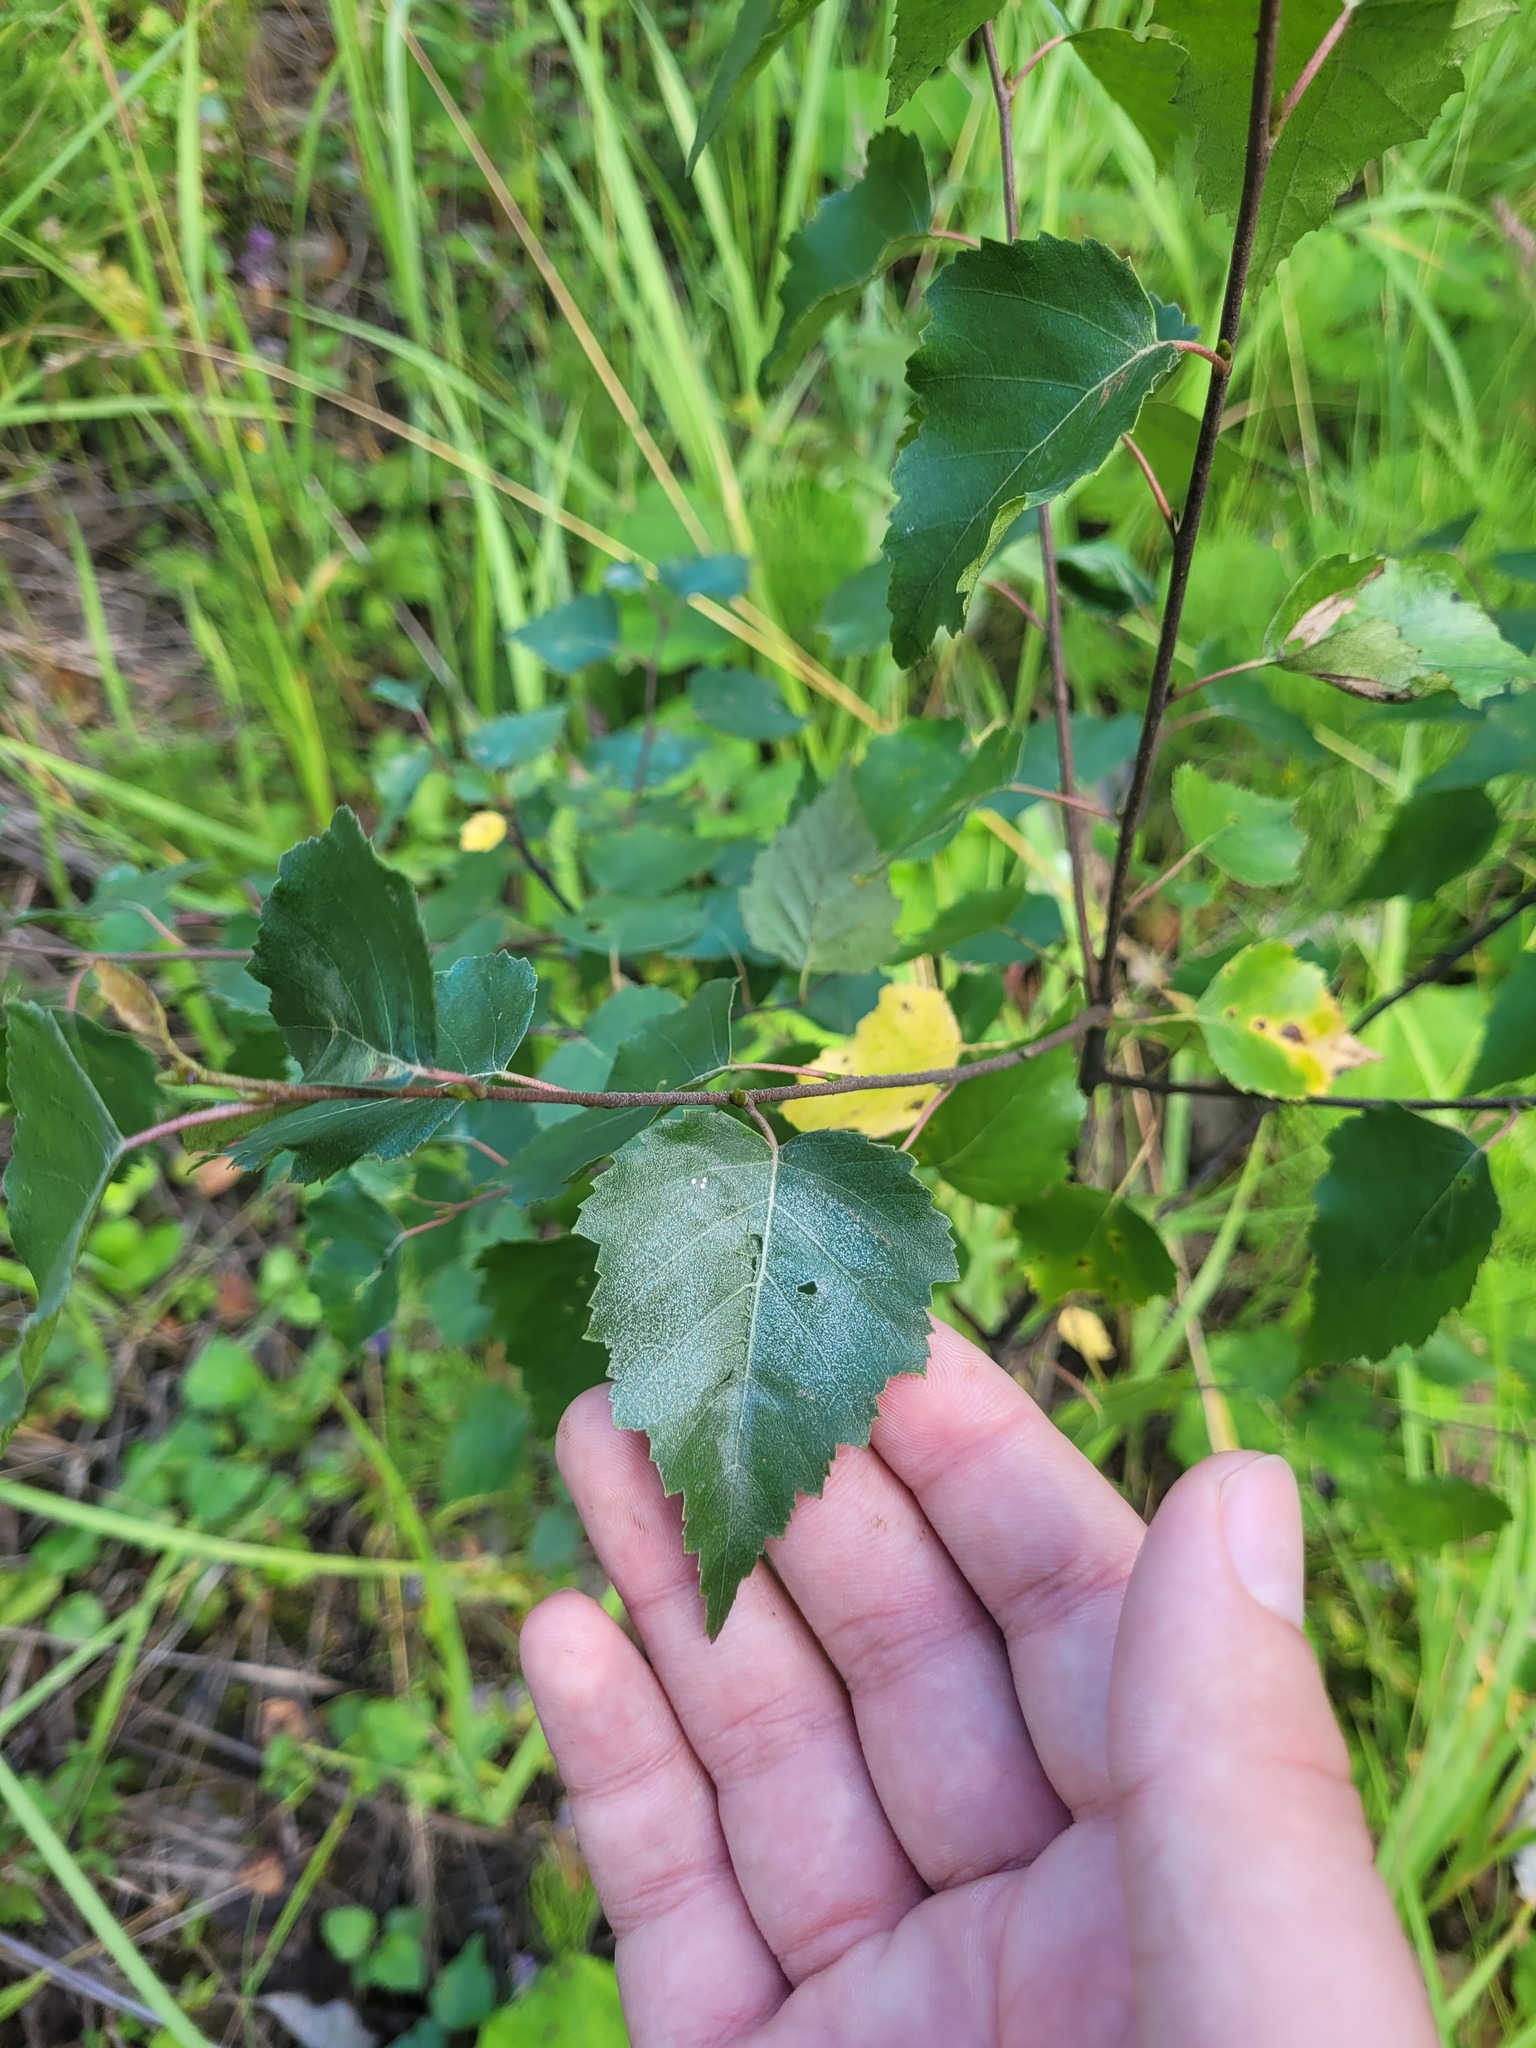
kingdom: Plantae
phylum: Tracheophyta
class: Magnoliopsida
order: Fagales
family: Betulaceae
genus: Betula
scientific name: Betula pendula
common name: Silver birch
